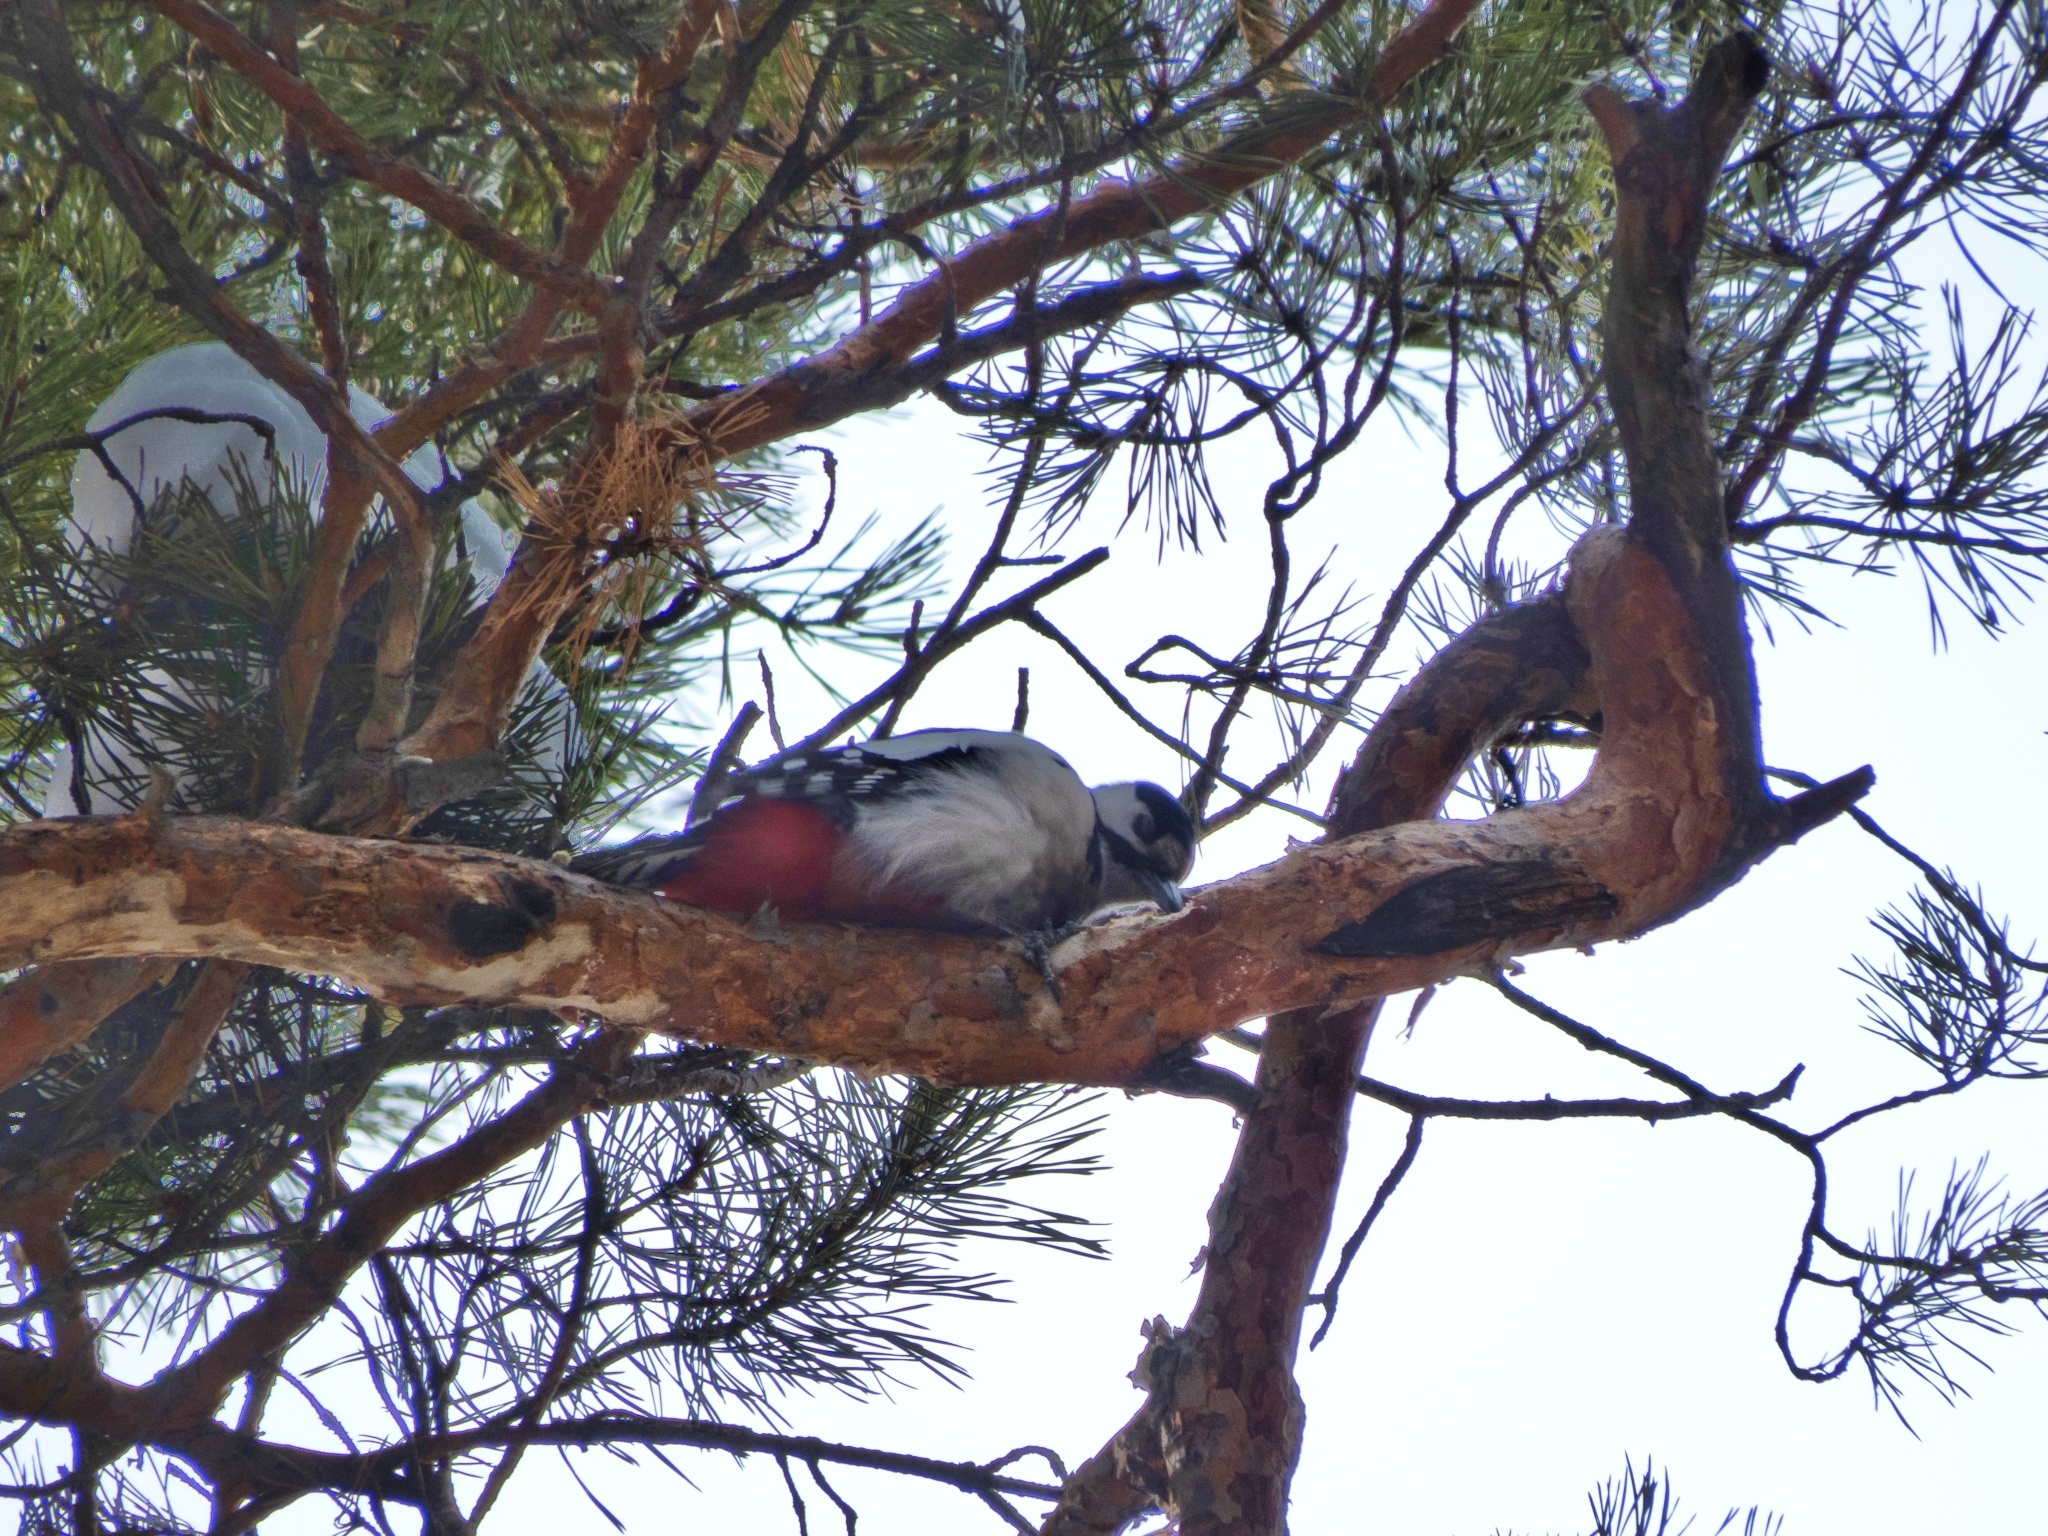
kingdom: Animalia
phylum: Chordata
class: Aves
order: Piciformes
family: Picidae
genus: Dendrocopos
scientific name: Dendrocopos major
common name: Great spotted woodpecker
